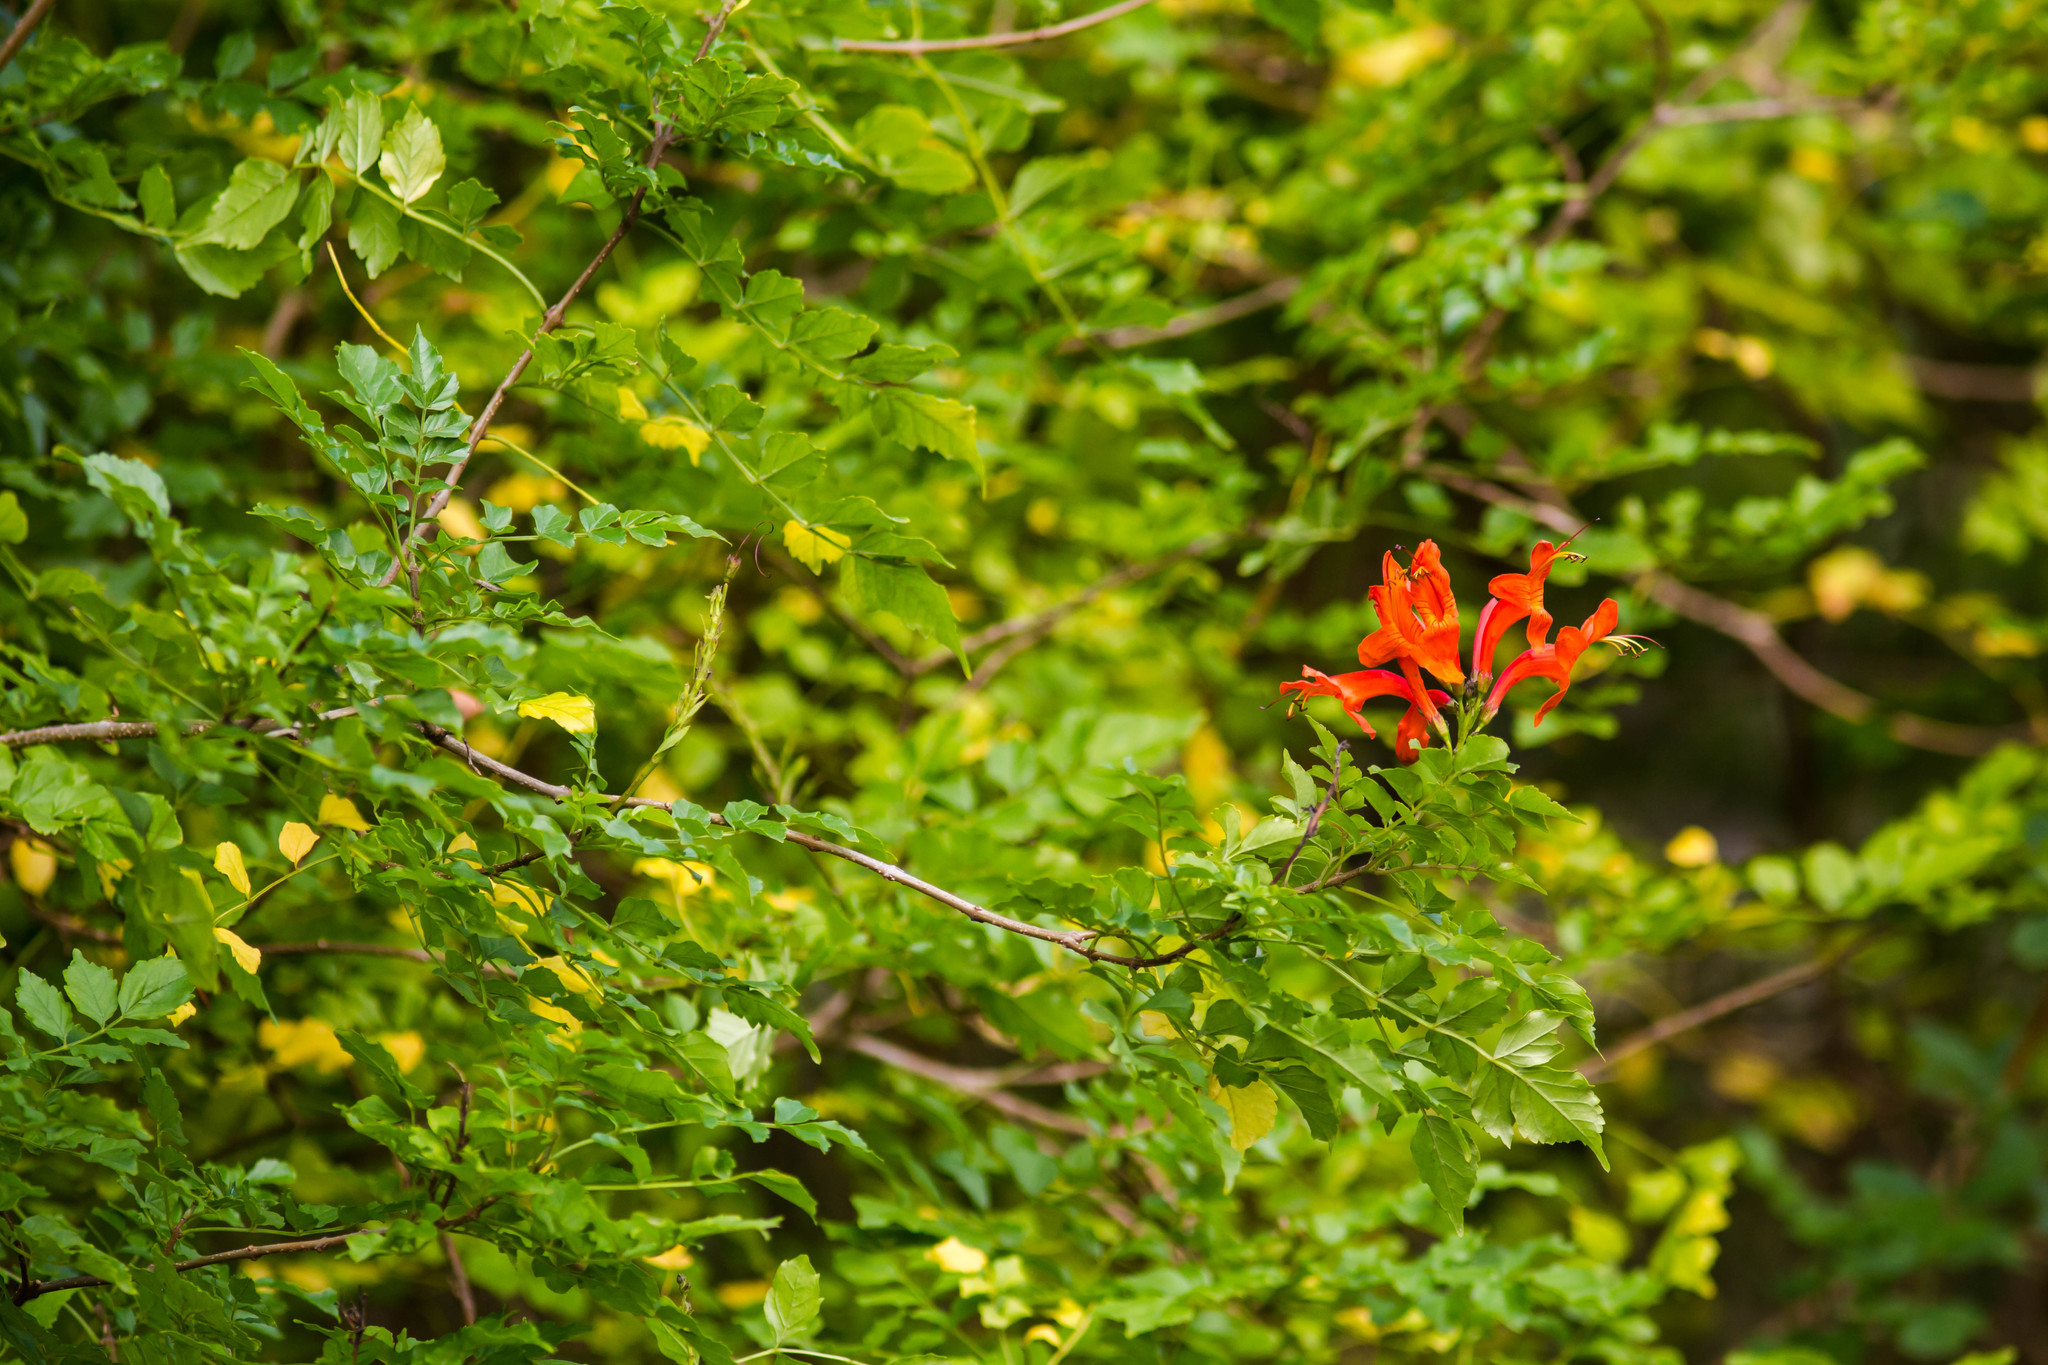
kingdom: Plantae
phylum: Tracheophyta
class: Magnoliopsida
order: Lamiales
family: Bignoniaceae
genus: Tecomaria
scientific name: Tecomaria capensis
